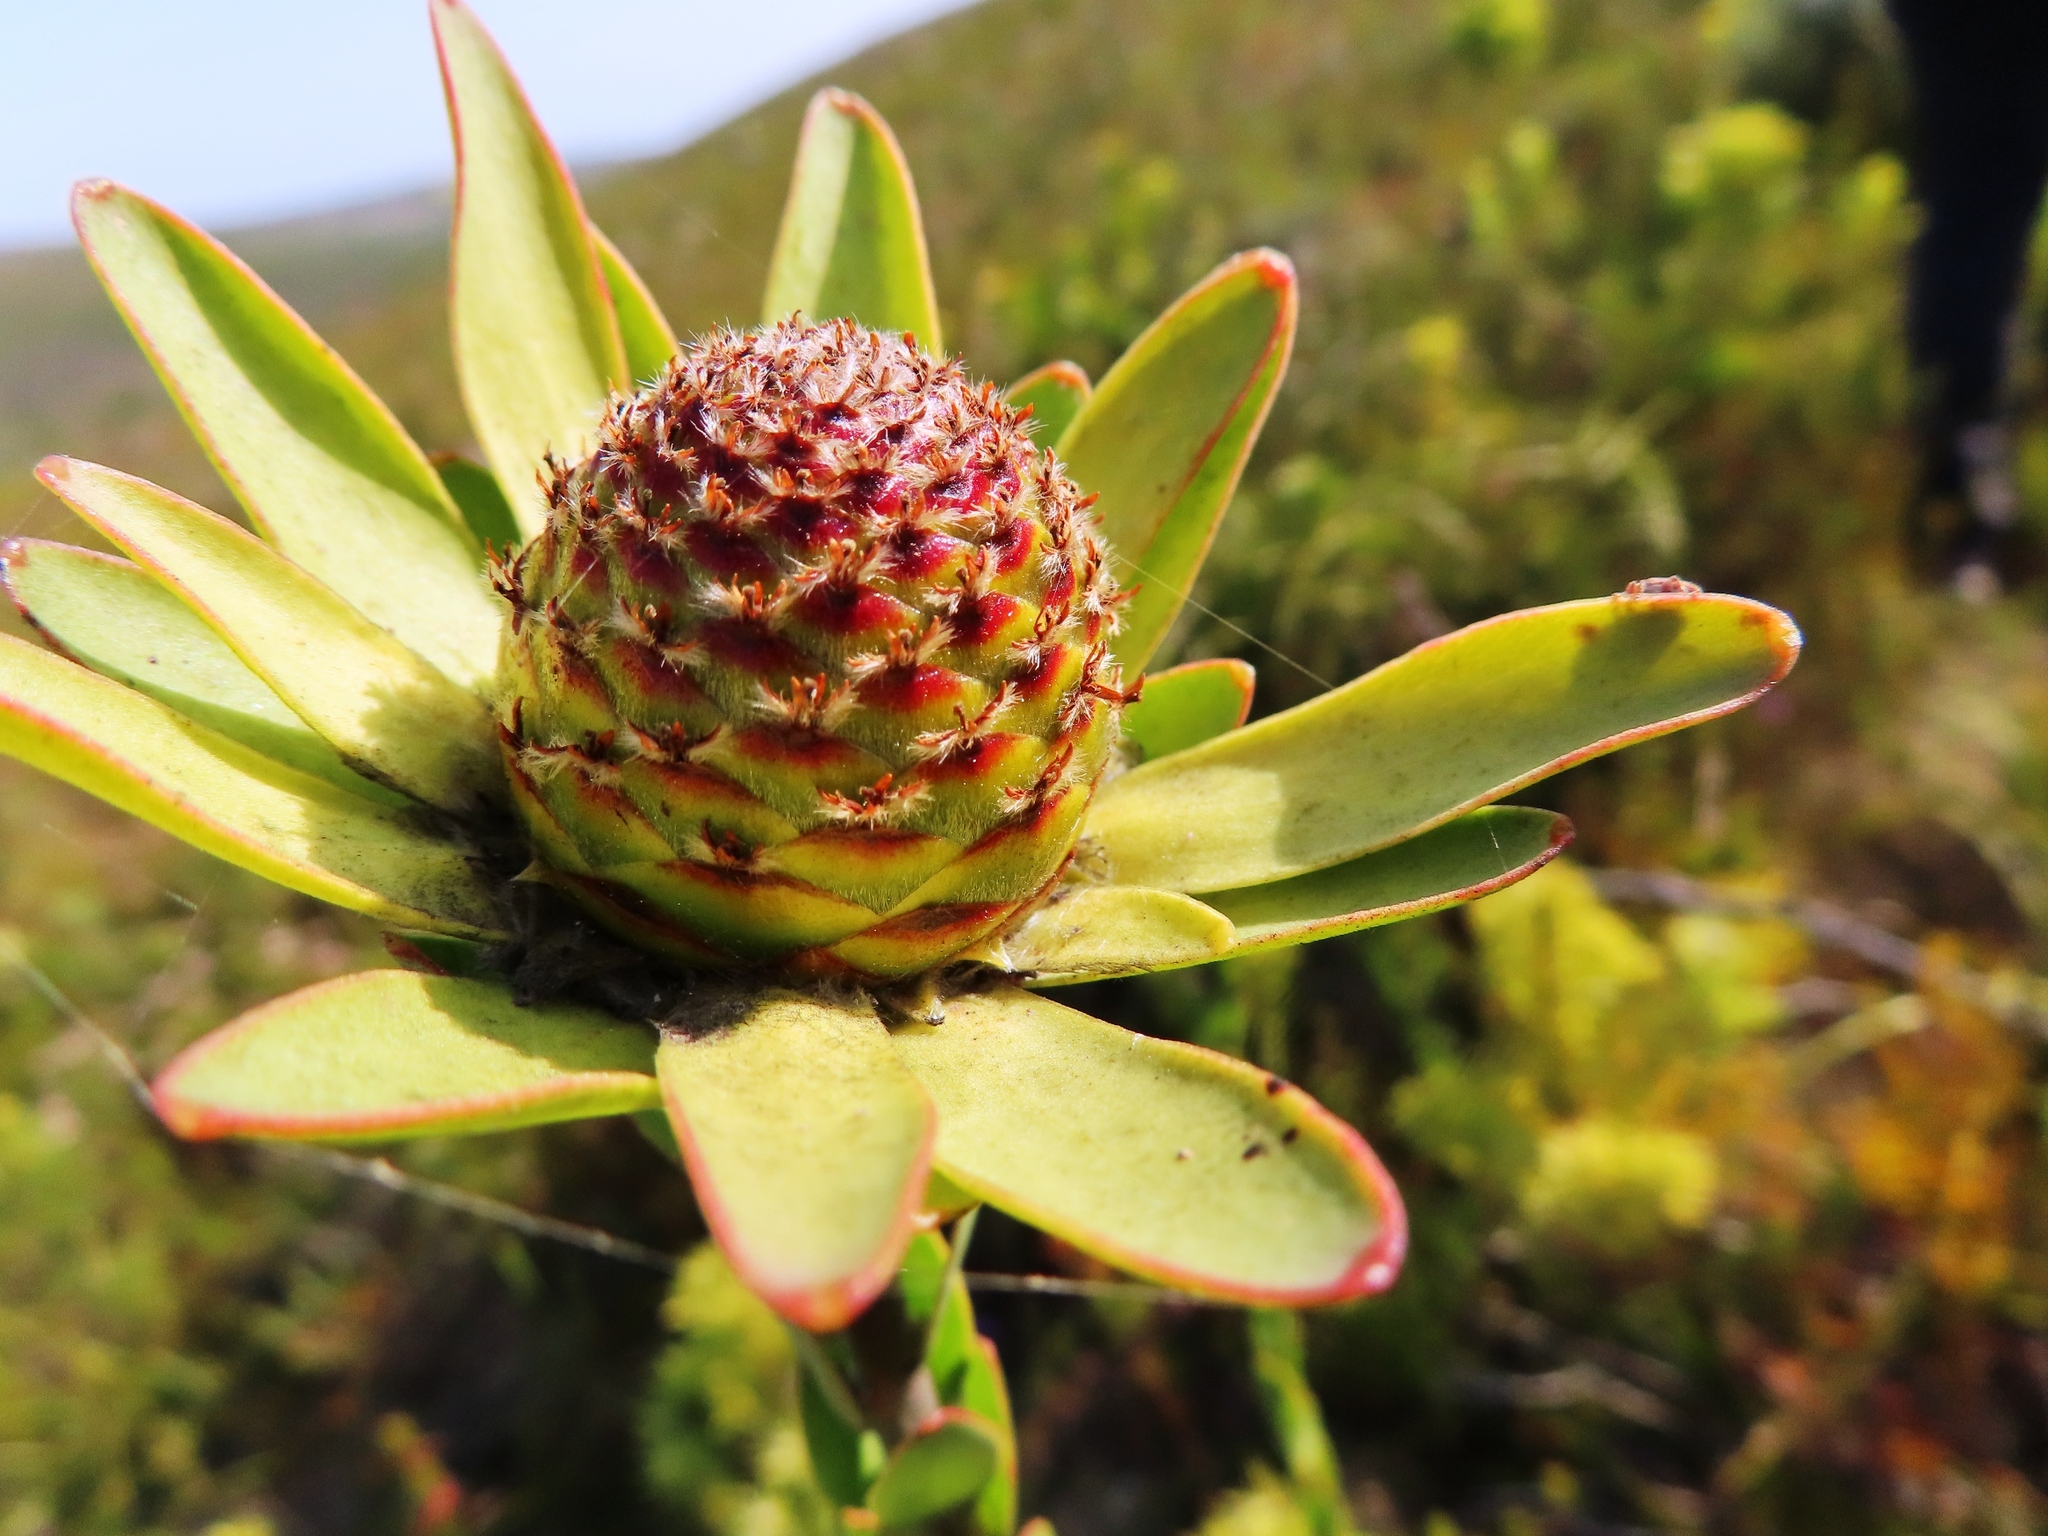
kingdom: Plantae
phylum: Tracheophyta
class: Magnoliopsida
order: Proteales
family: Proteaceae
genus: Leucadendron
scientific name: Leucadendron elimense
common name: Elim conebush
